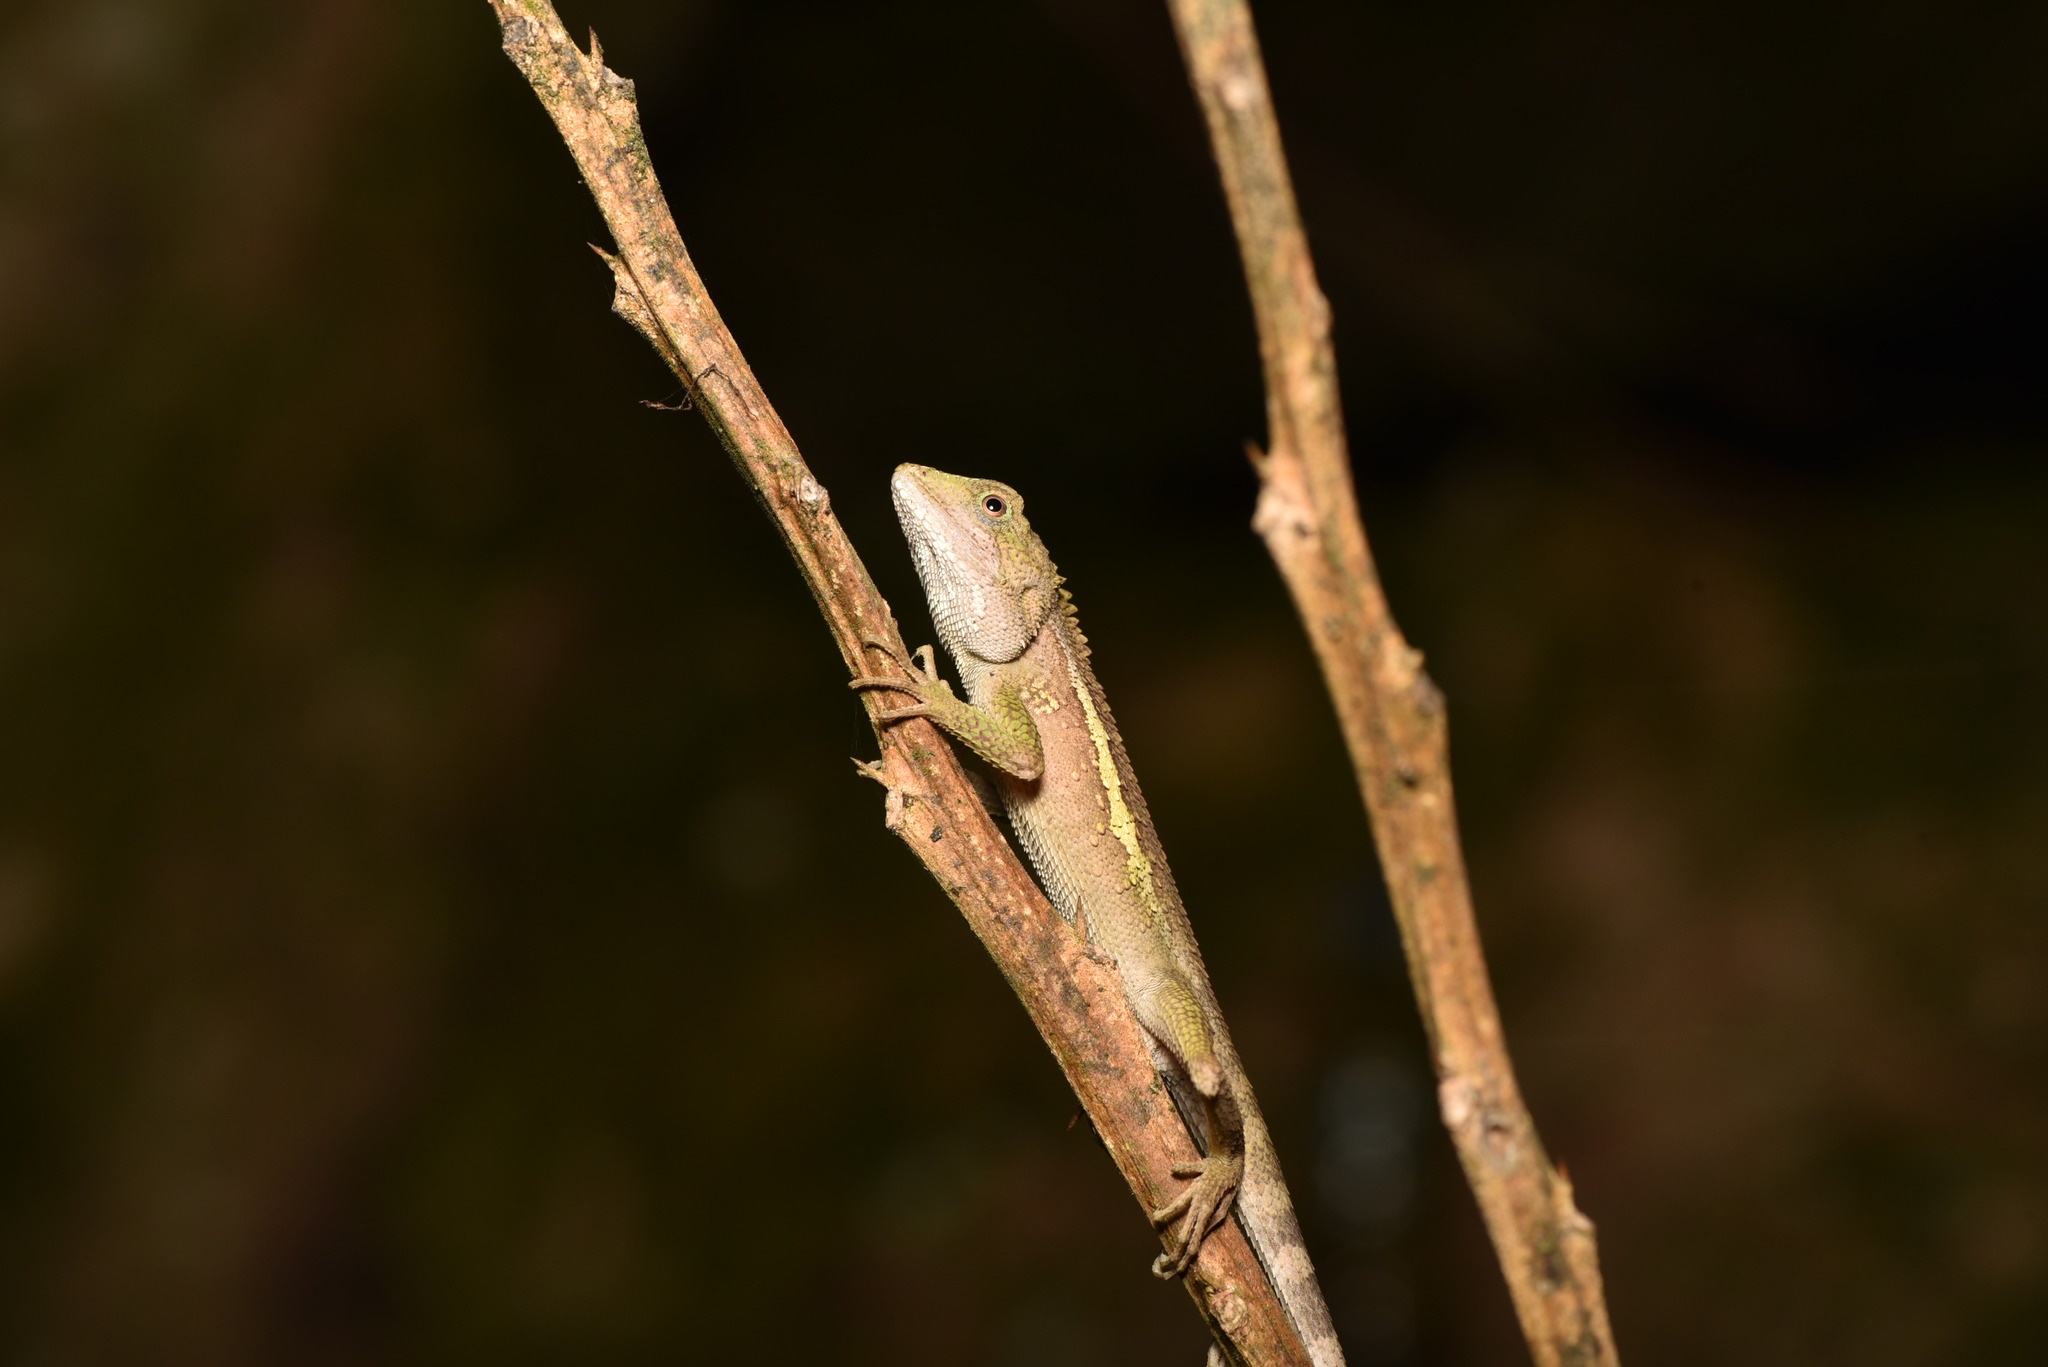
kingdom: Animalia
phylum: Chordata
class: Squamata
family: Agamidae
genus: Diploderma
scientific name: Diploderma swinhonis
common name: Taiwan japalure
